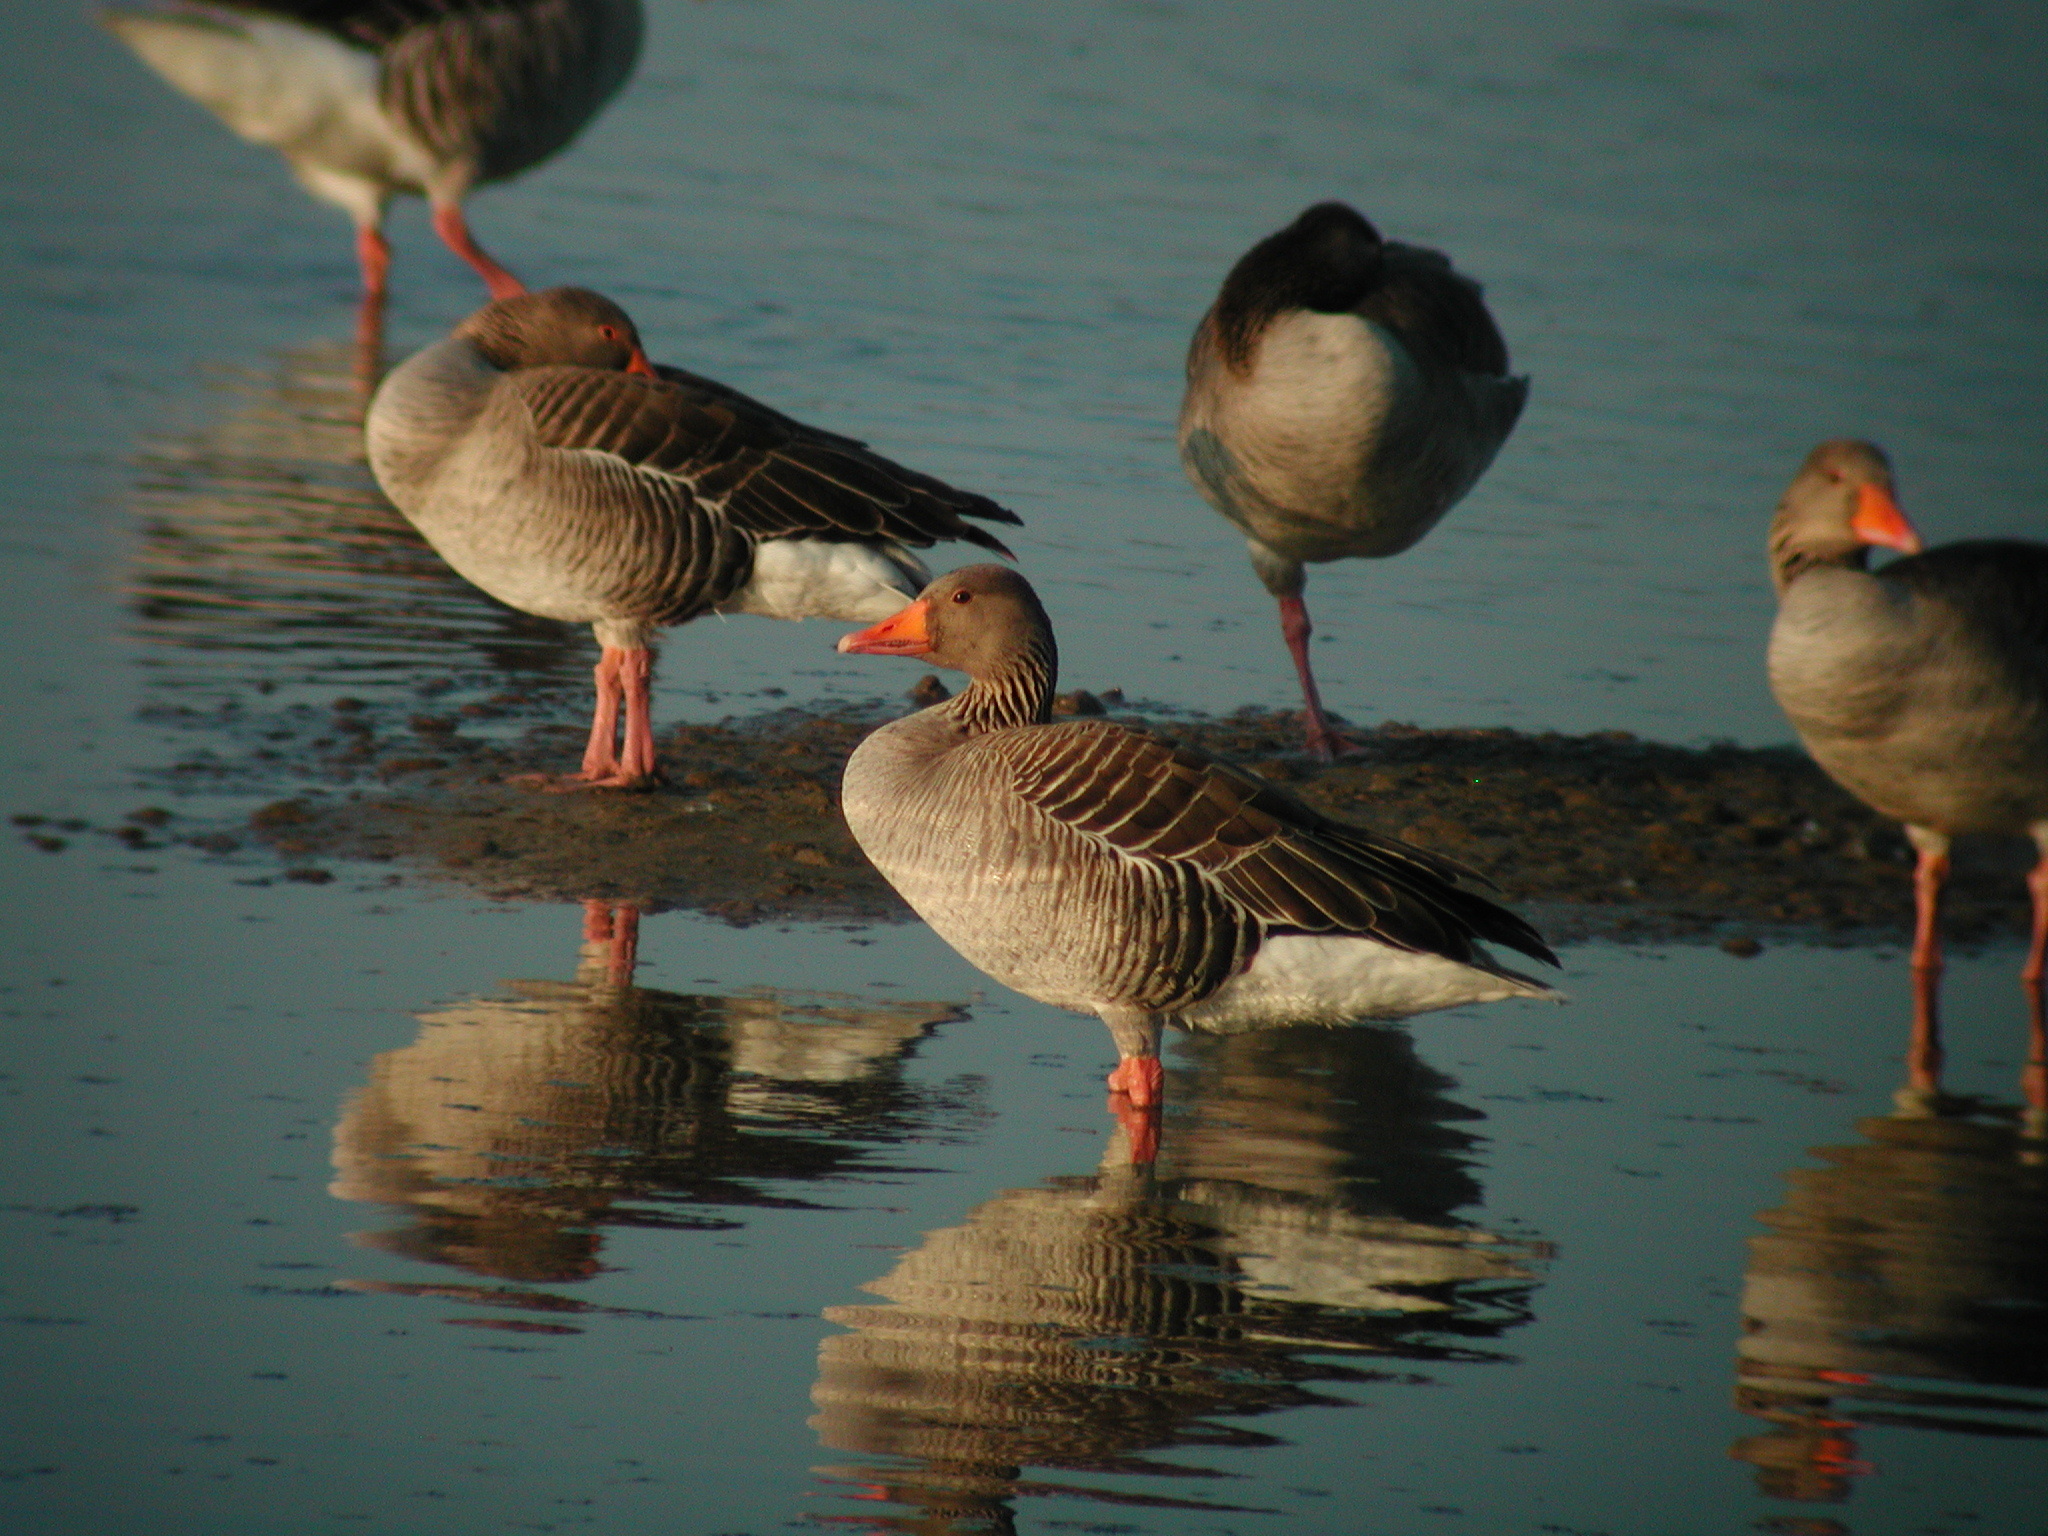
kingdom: Animalia
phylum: Chordata
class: Aves
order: Anseriformes
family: Anatidae
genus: Anser
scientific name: Anser anser
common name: Greylag goose
